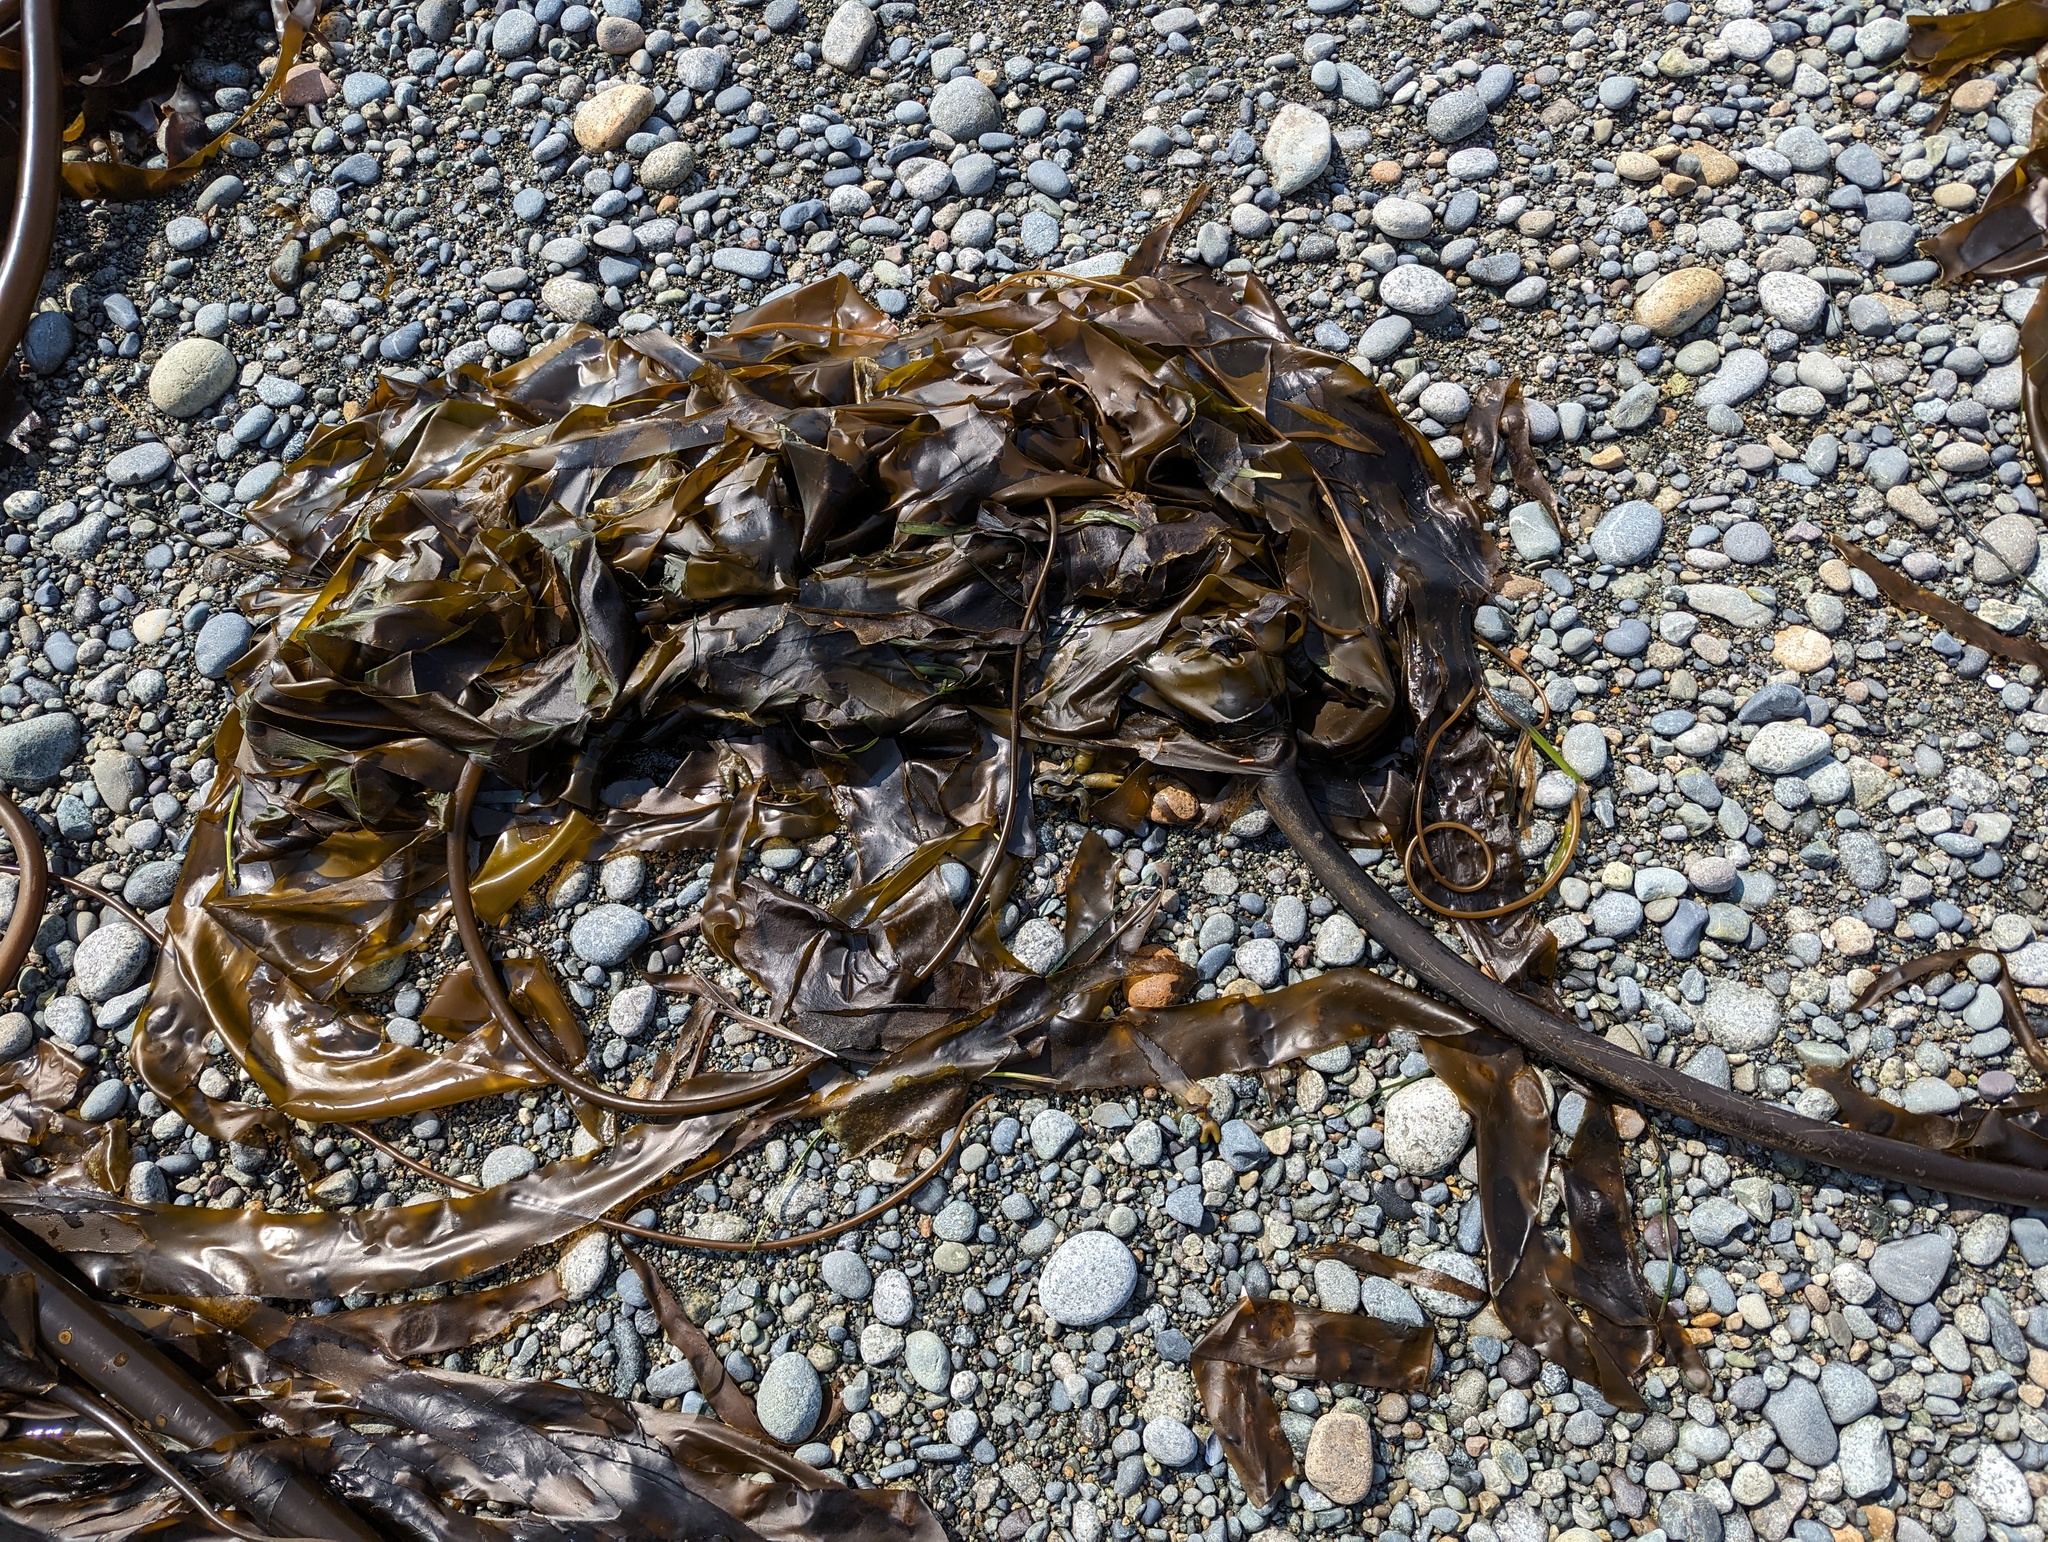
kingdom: Chromista
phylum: Ochrophyta
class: Phaeophyceae
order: Laminariales
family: Laminariaceae
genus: Nereocystis
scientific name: Nereocystis luetkeana
